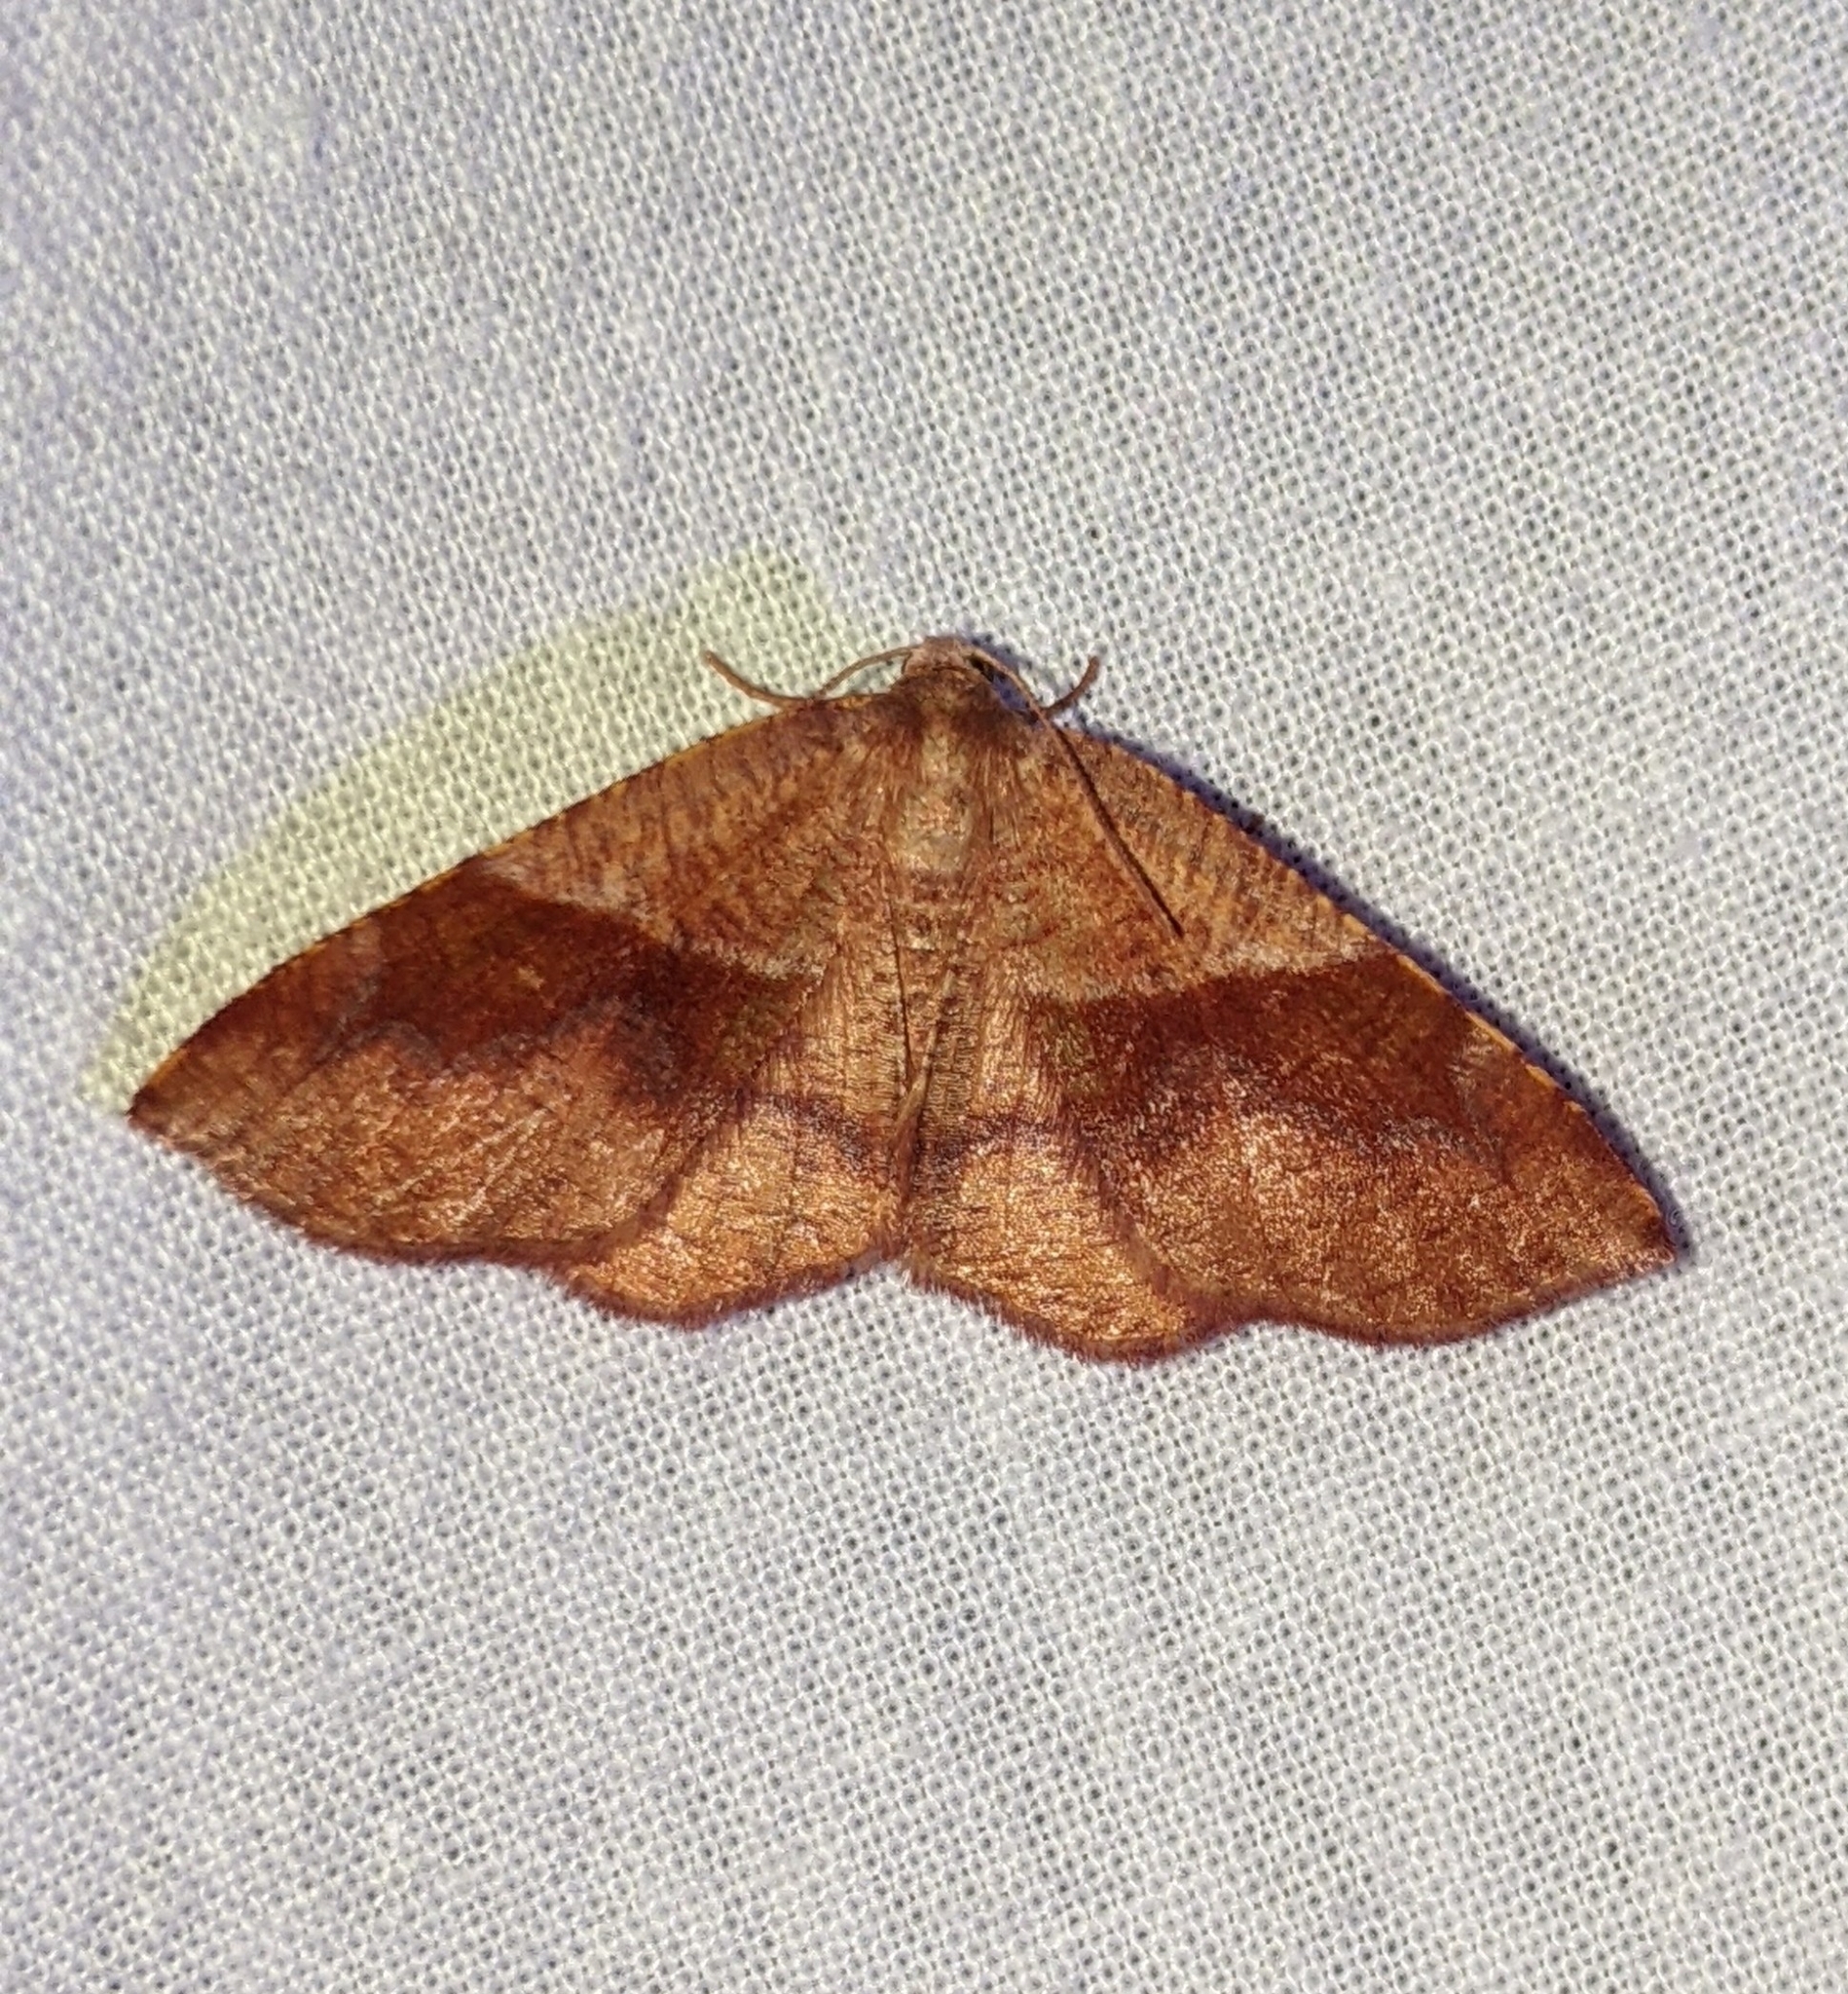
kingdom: Animalia
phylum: Arthropoda
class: Insecta
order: Lepidoptera
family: Geometridae
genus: Plagodis
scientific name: Plagodis pulveraria
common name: Barred umber
